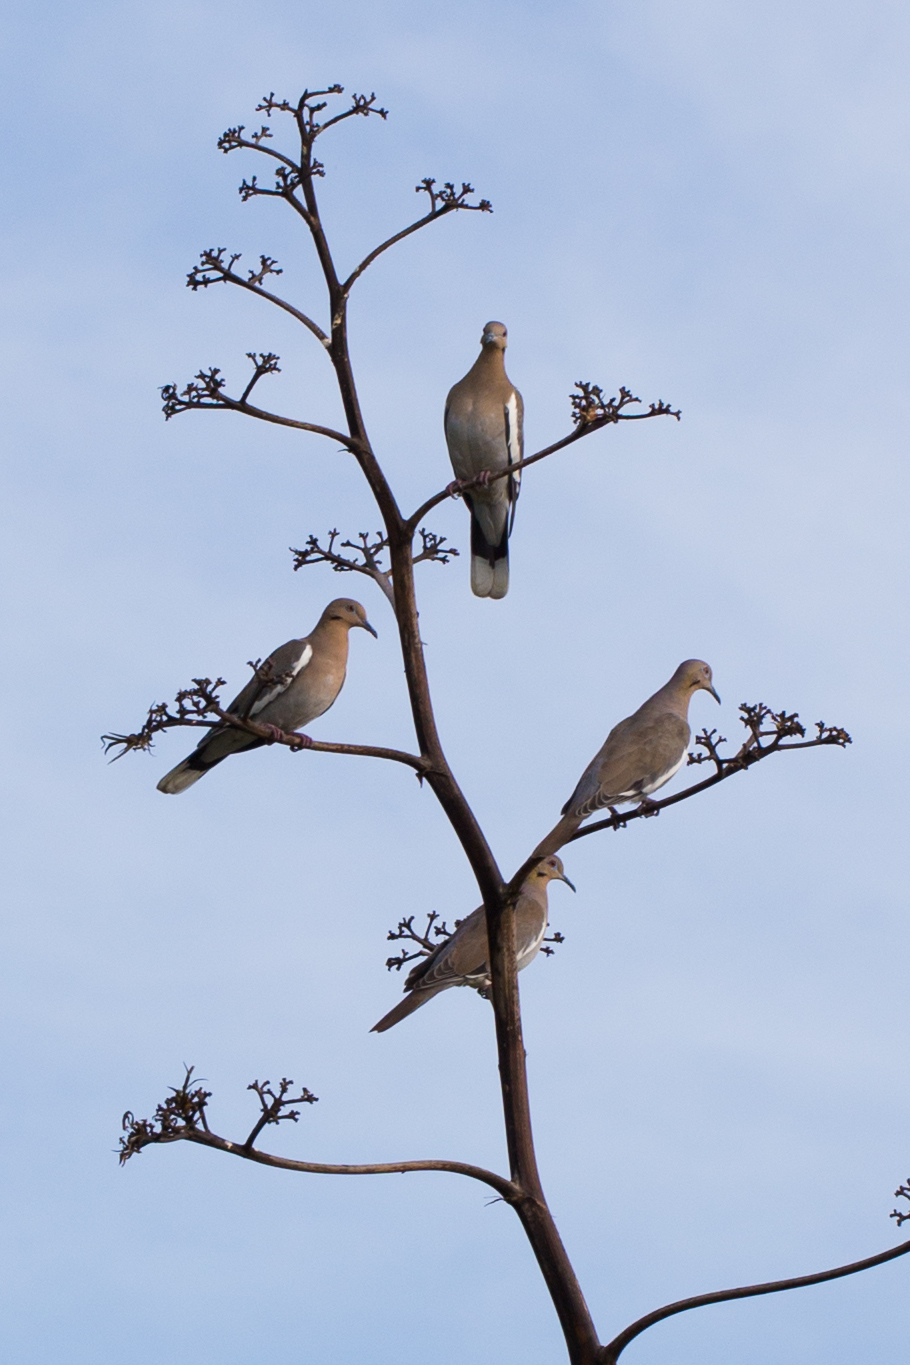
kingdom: Animalia
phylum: Chordata
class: Aves
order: Columbiformes
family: Columbidae
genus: Zenaida
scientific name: Zenaida asiatica
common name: White-winged dove
